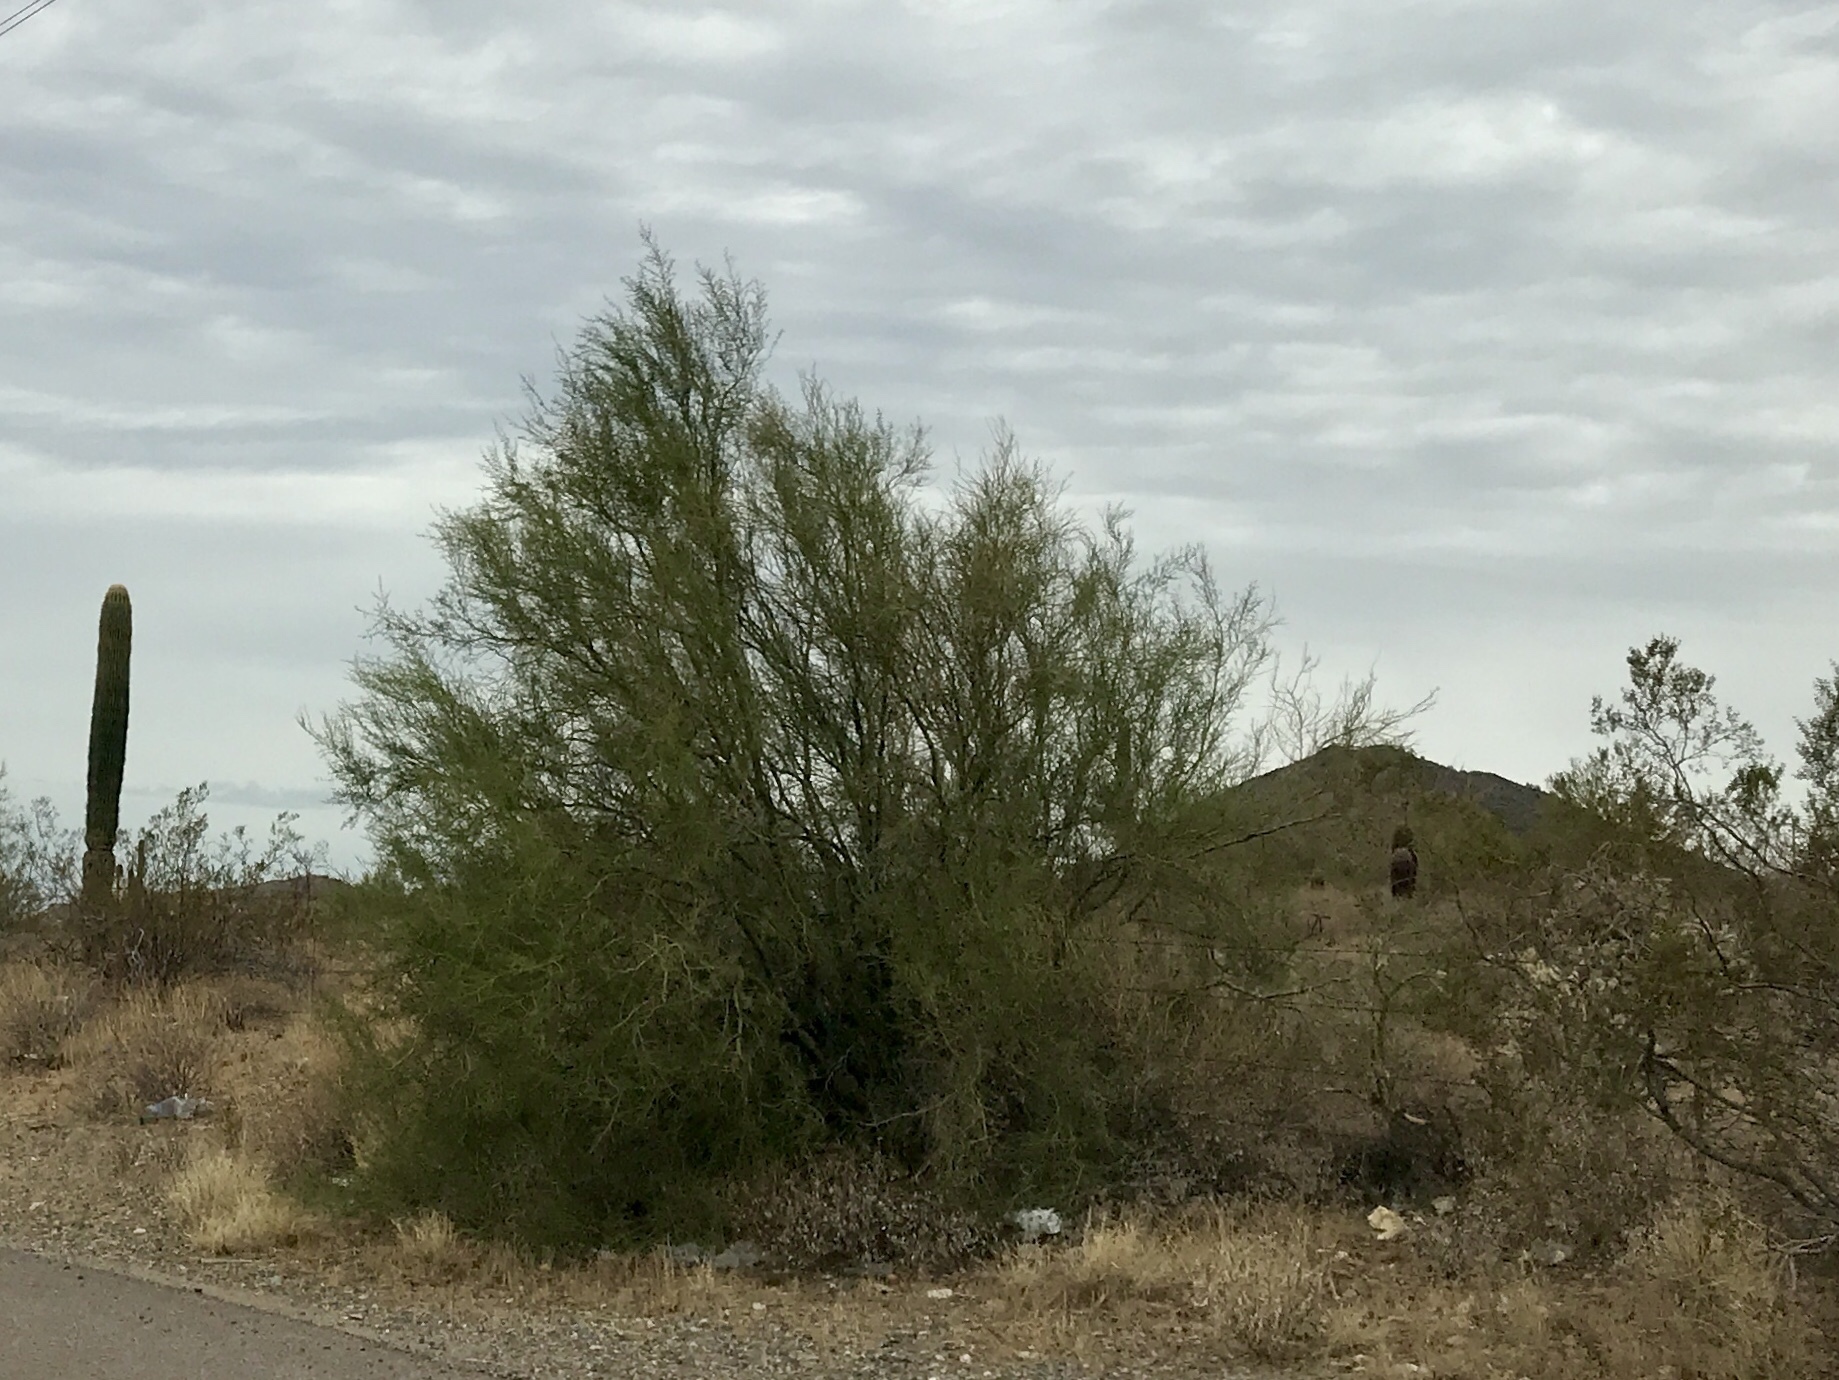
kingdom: Plantae
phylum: Tracheophyta
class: Magnoliopsida
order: Fabales
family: Fabaceae
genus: Parkinsonia
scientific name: Parkinsonia microphylla
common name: Yellow paloverde
